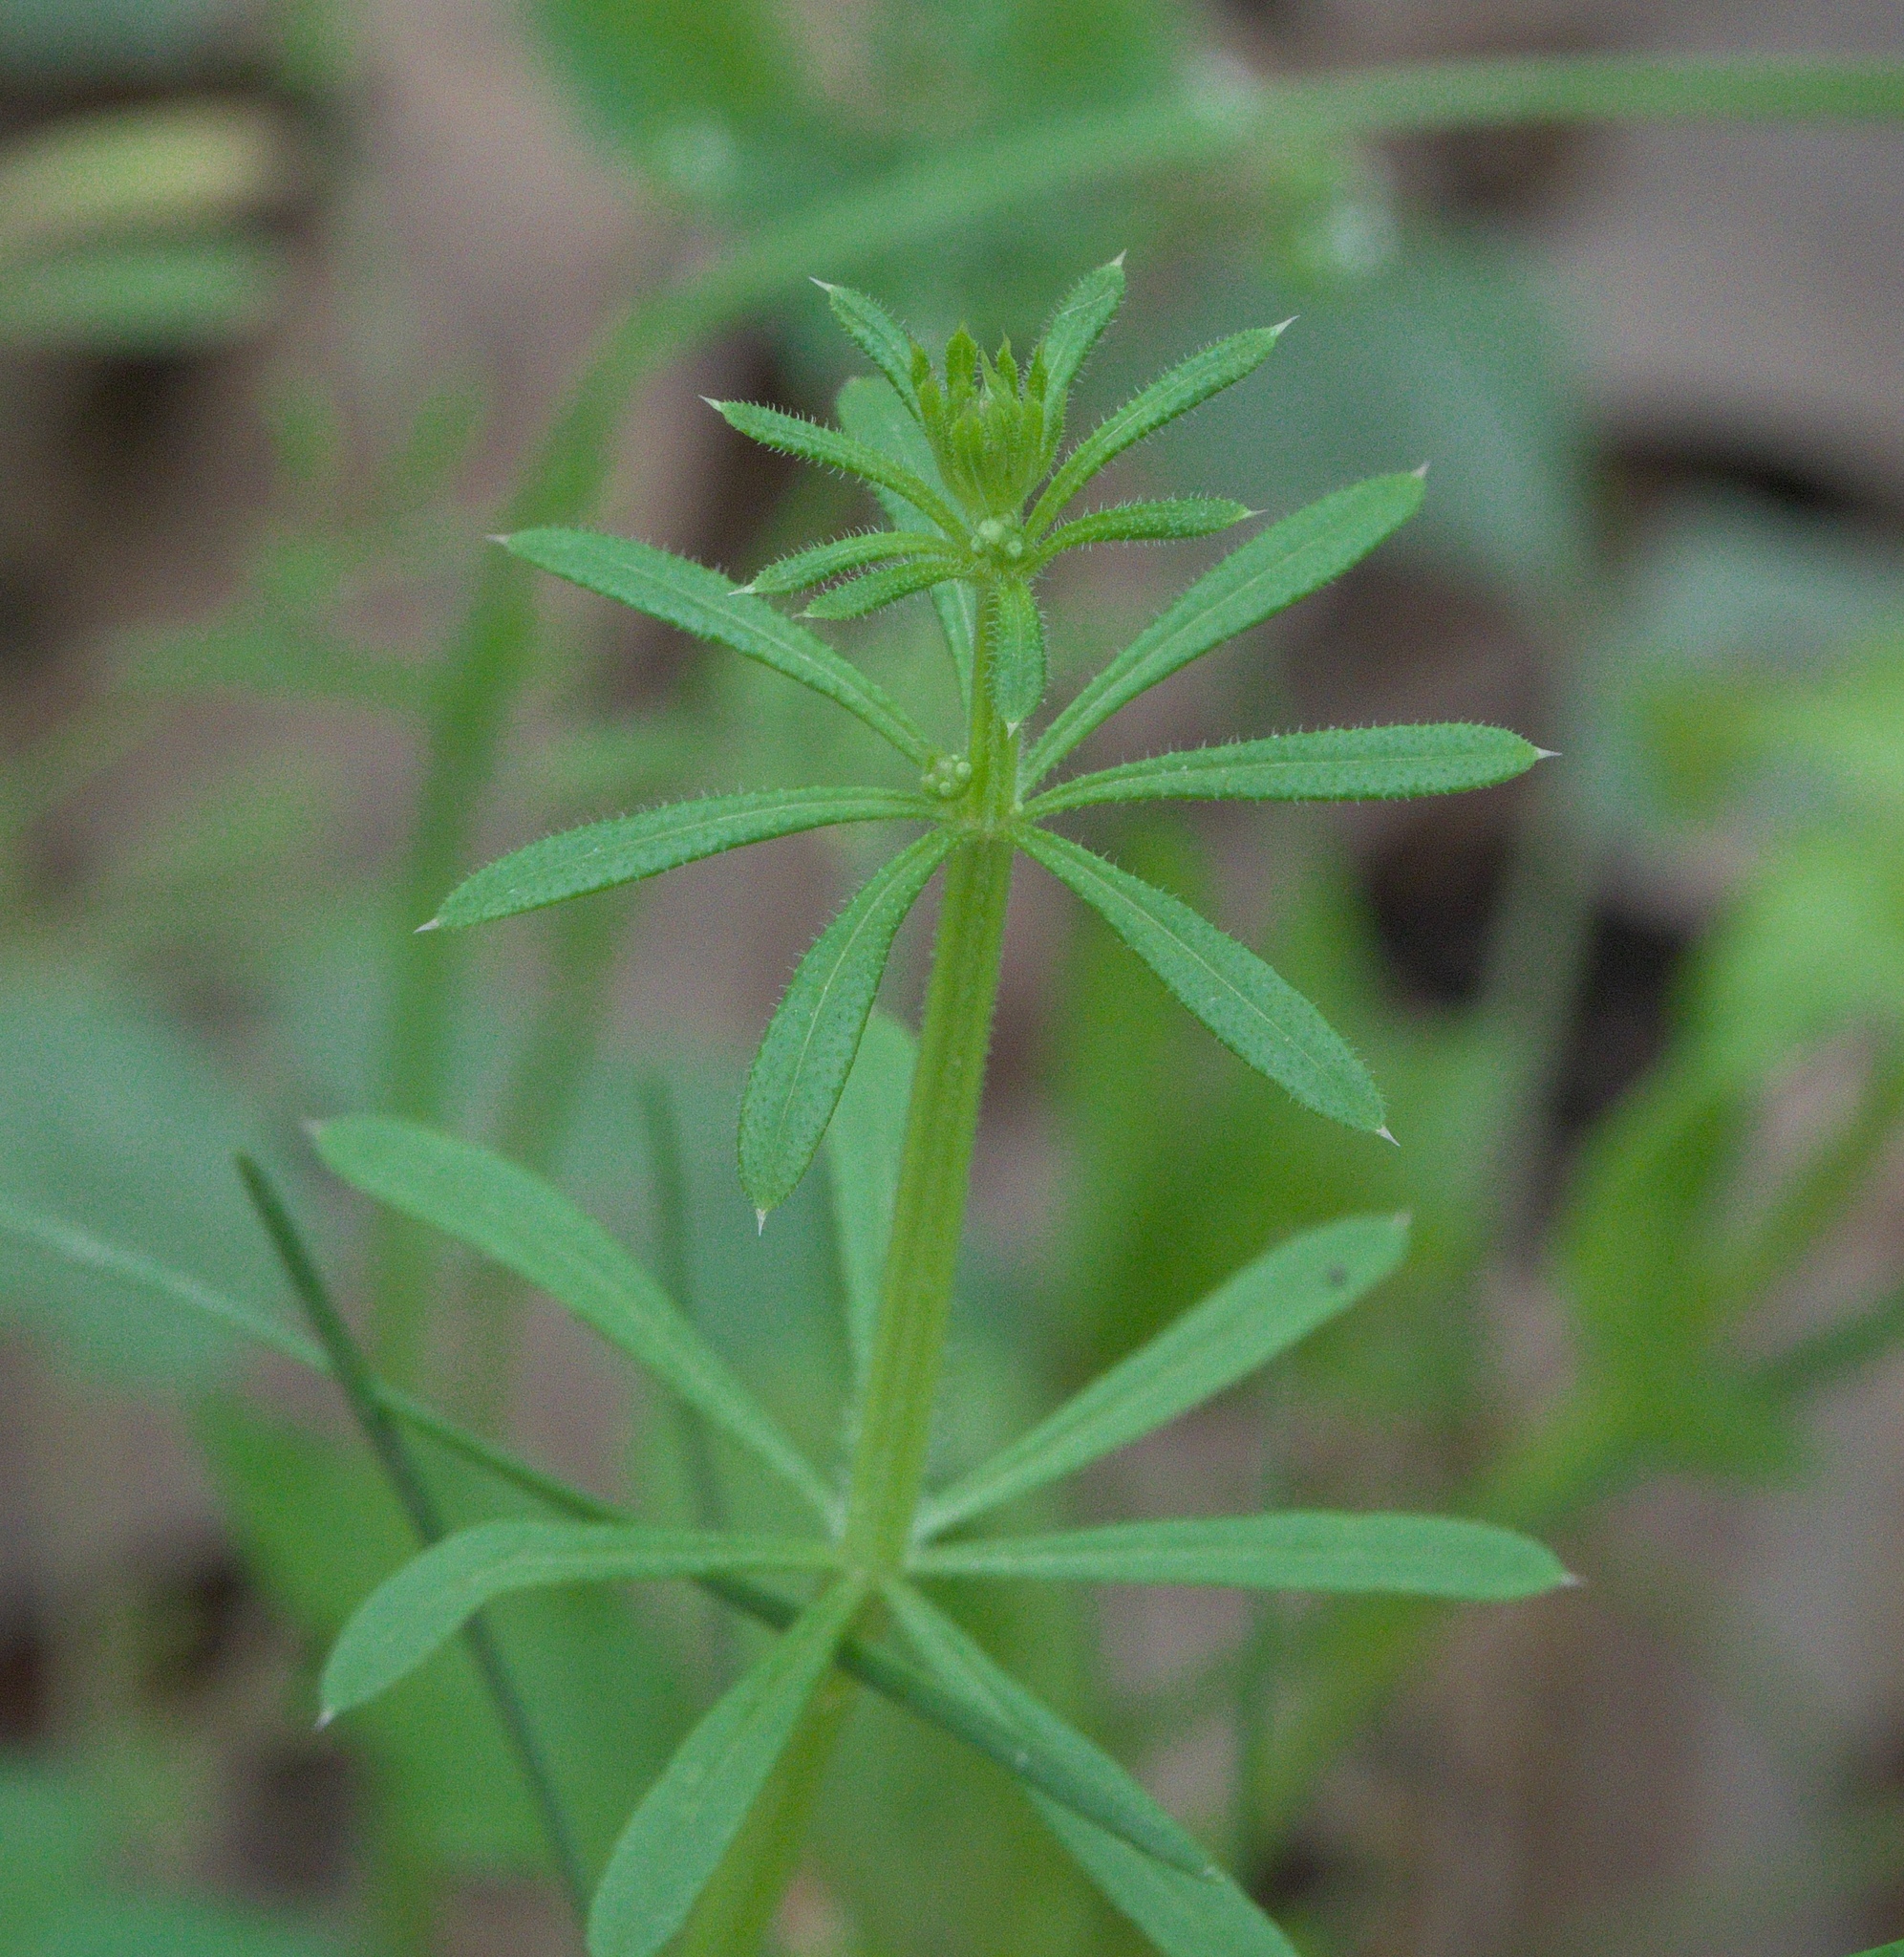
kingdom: Plantae
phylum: Tracheophyta
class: Magnoliopsida
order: Gentianales
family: Rubiaceae
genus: Galium
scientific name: Galium aparine
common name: Cleavers
